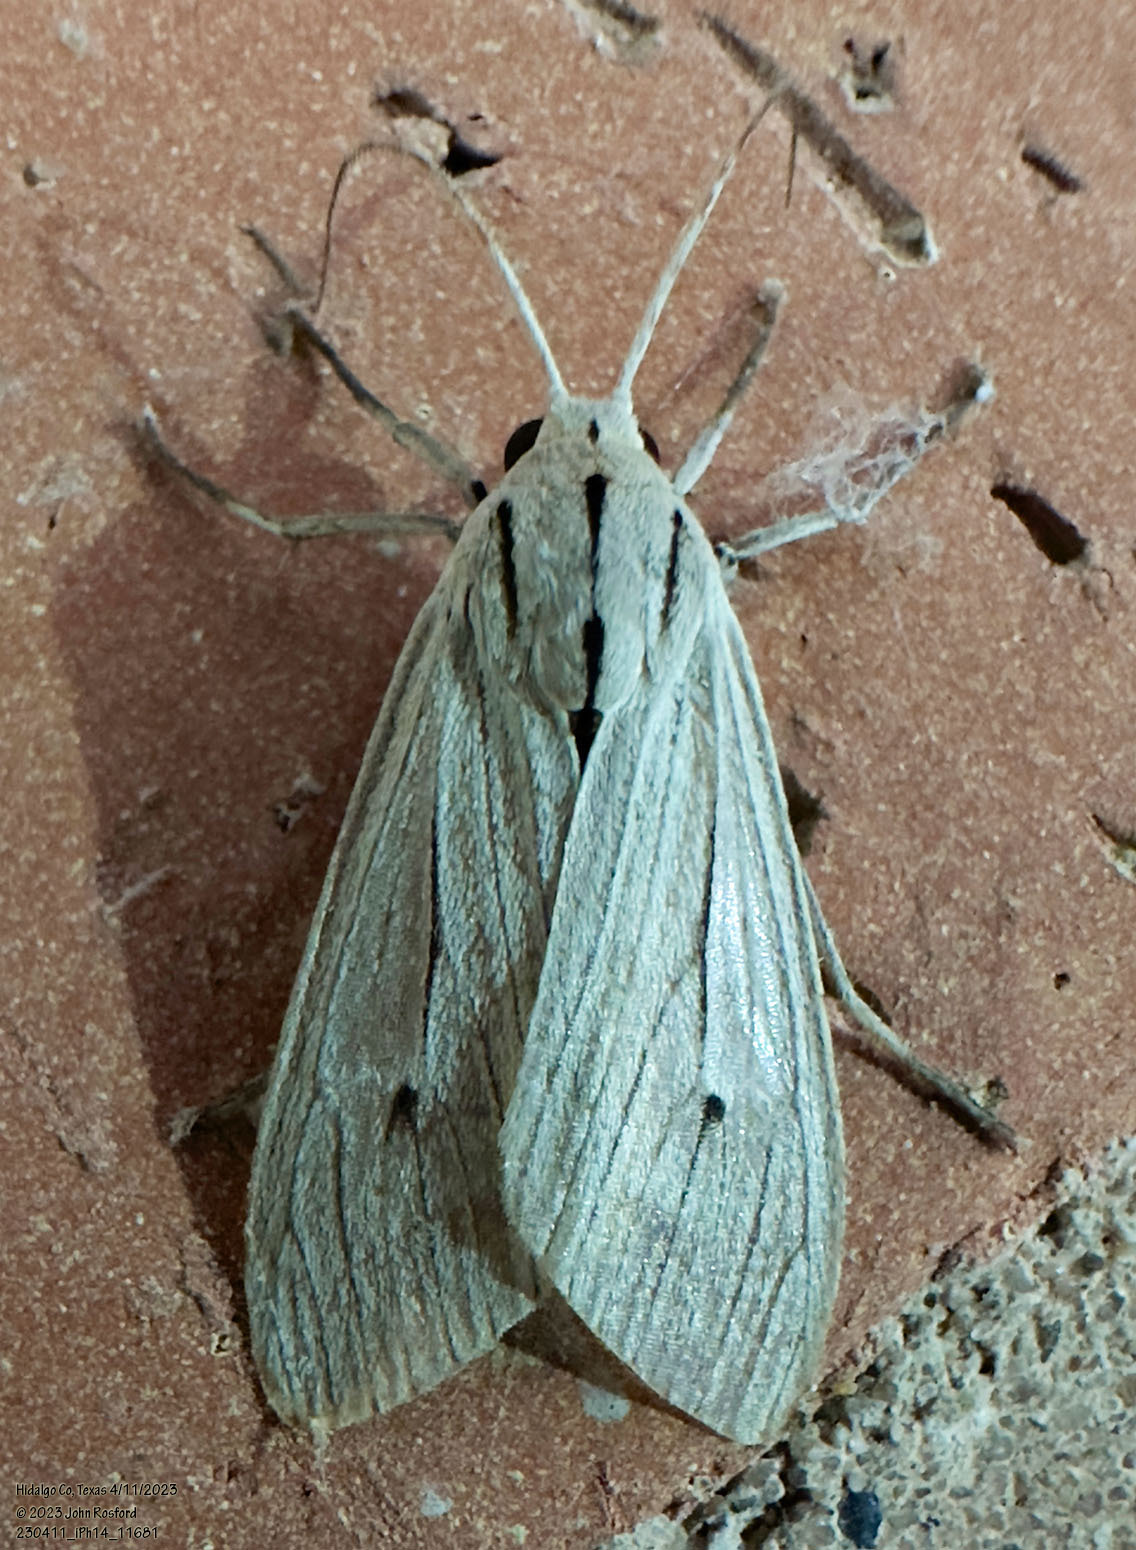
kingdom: Animalia
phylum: Arthropoda
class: Insecta
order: Lepidoptera
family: Erebidae
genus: Arctagyrta
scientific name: Arctagyrta Agaraea semivitrea
